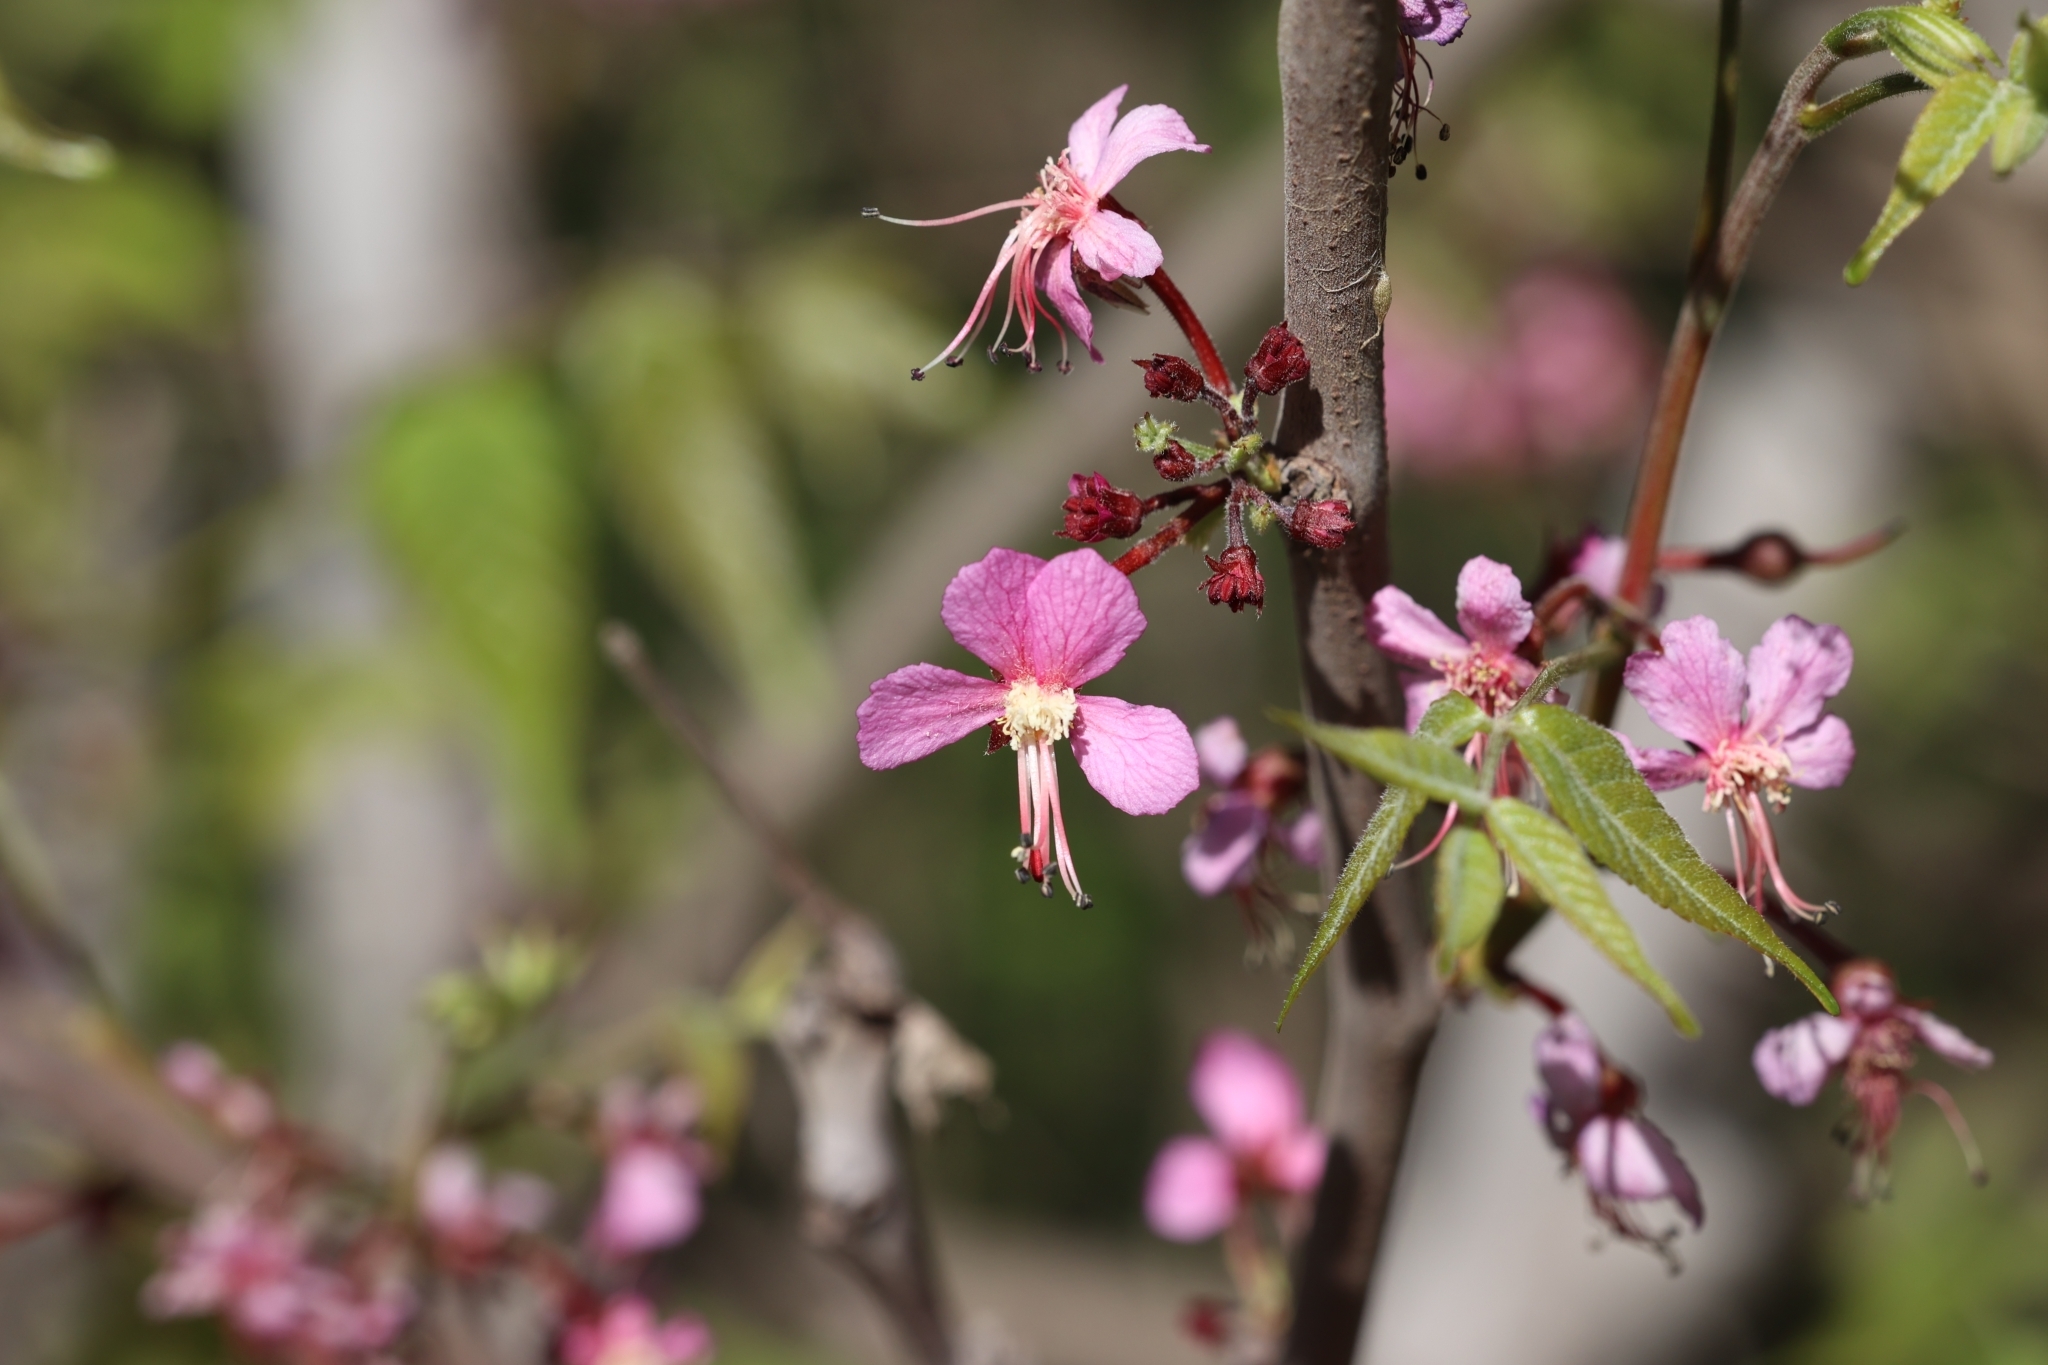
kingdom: Plantae
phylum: Tracheophyta
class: Magnoliopsida
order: Sapindales
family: Sapindaceae
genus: Ungnadia
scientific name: Ungnadia speciosa
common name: Texas-buckeye
